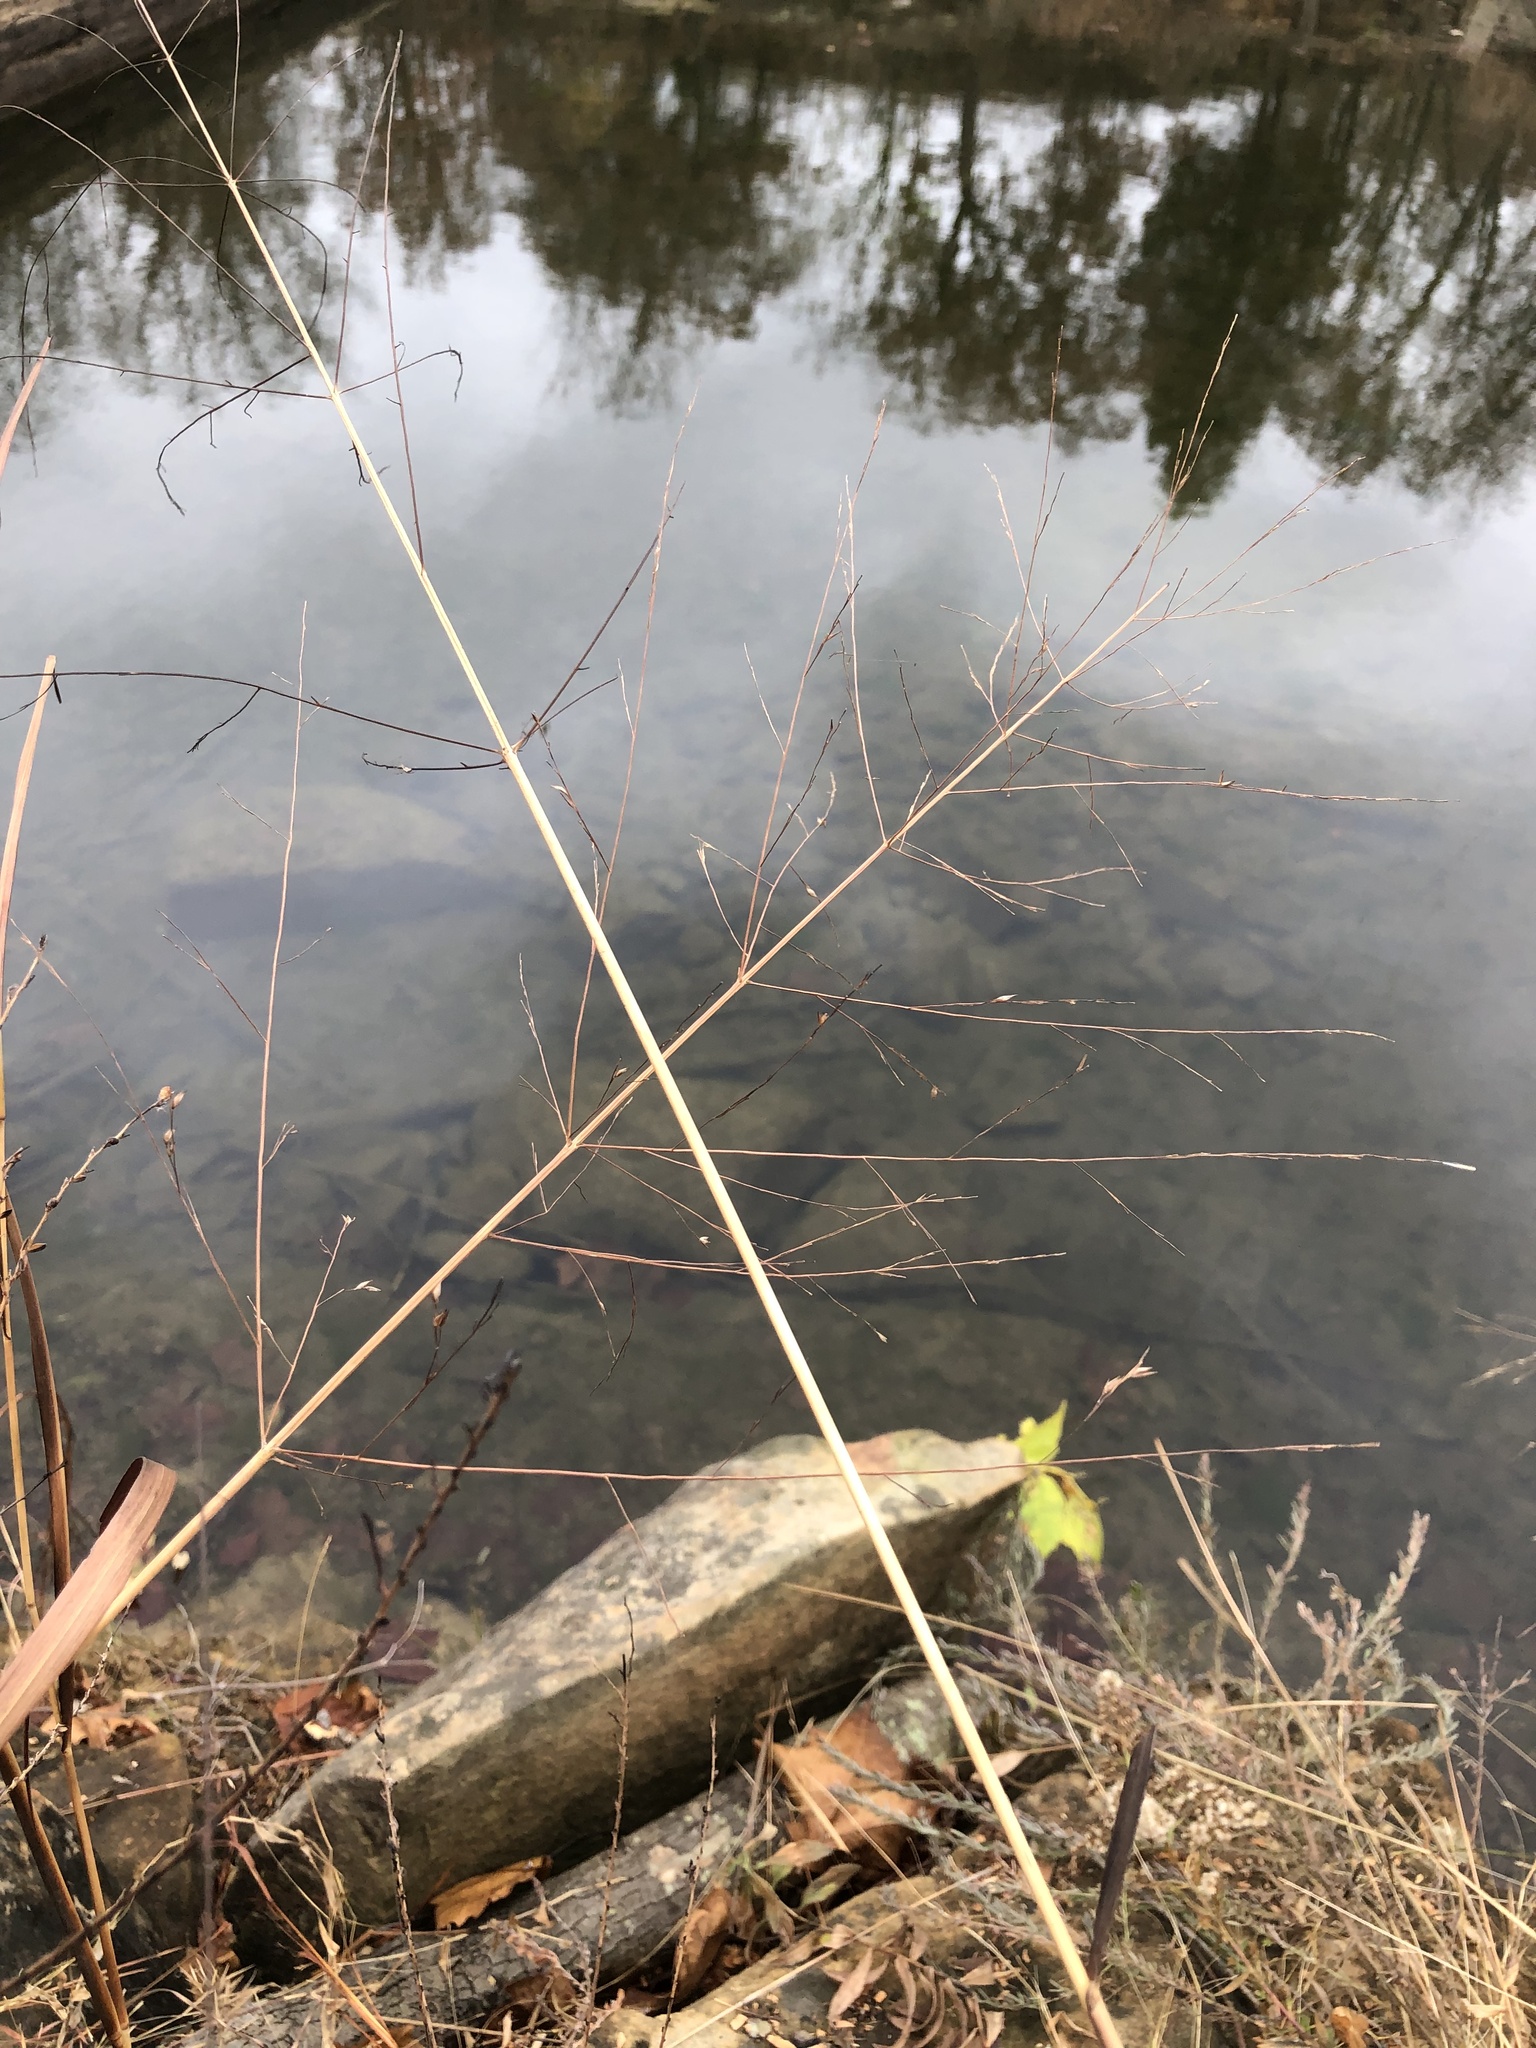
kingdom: Plantae
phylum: Tracheophyta
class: Liliopsida
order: Poales
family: Poaceae
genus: Panicum
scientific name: Panicum virgatum
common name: Switchgrass
